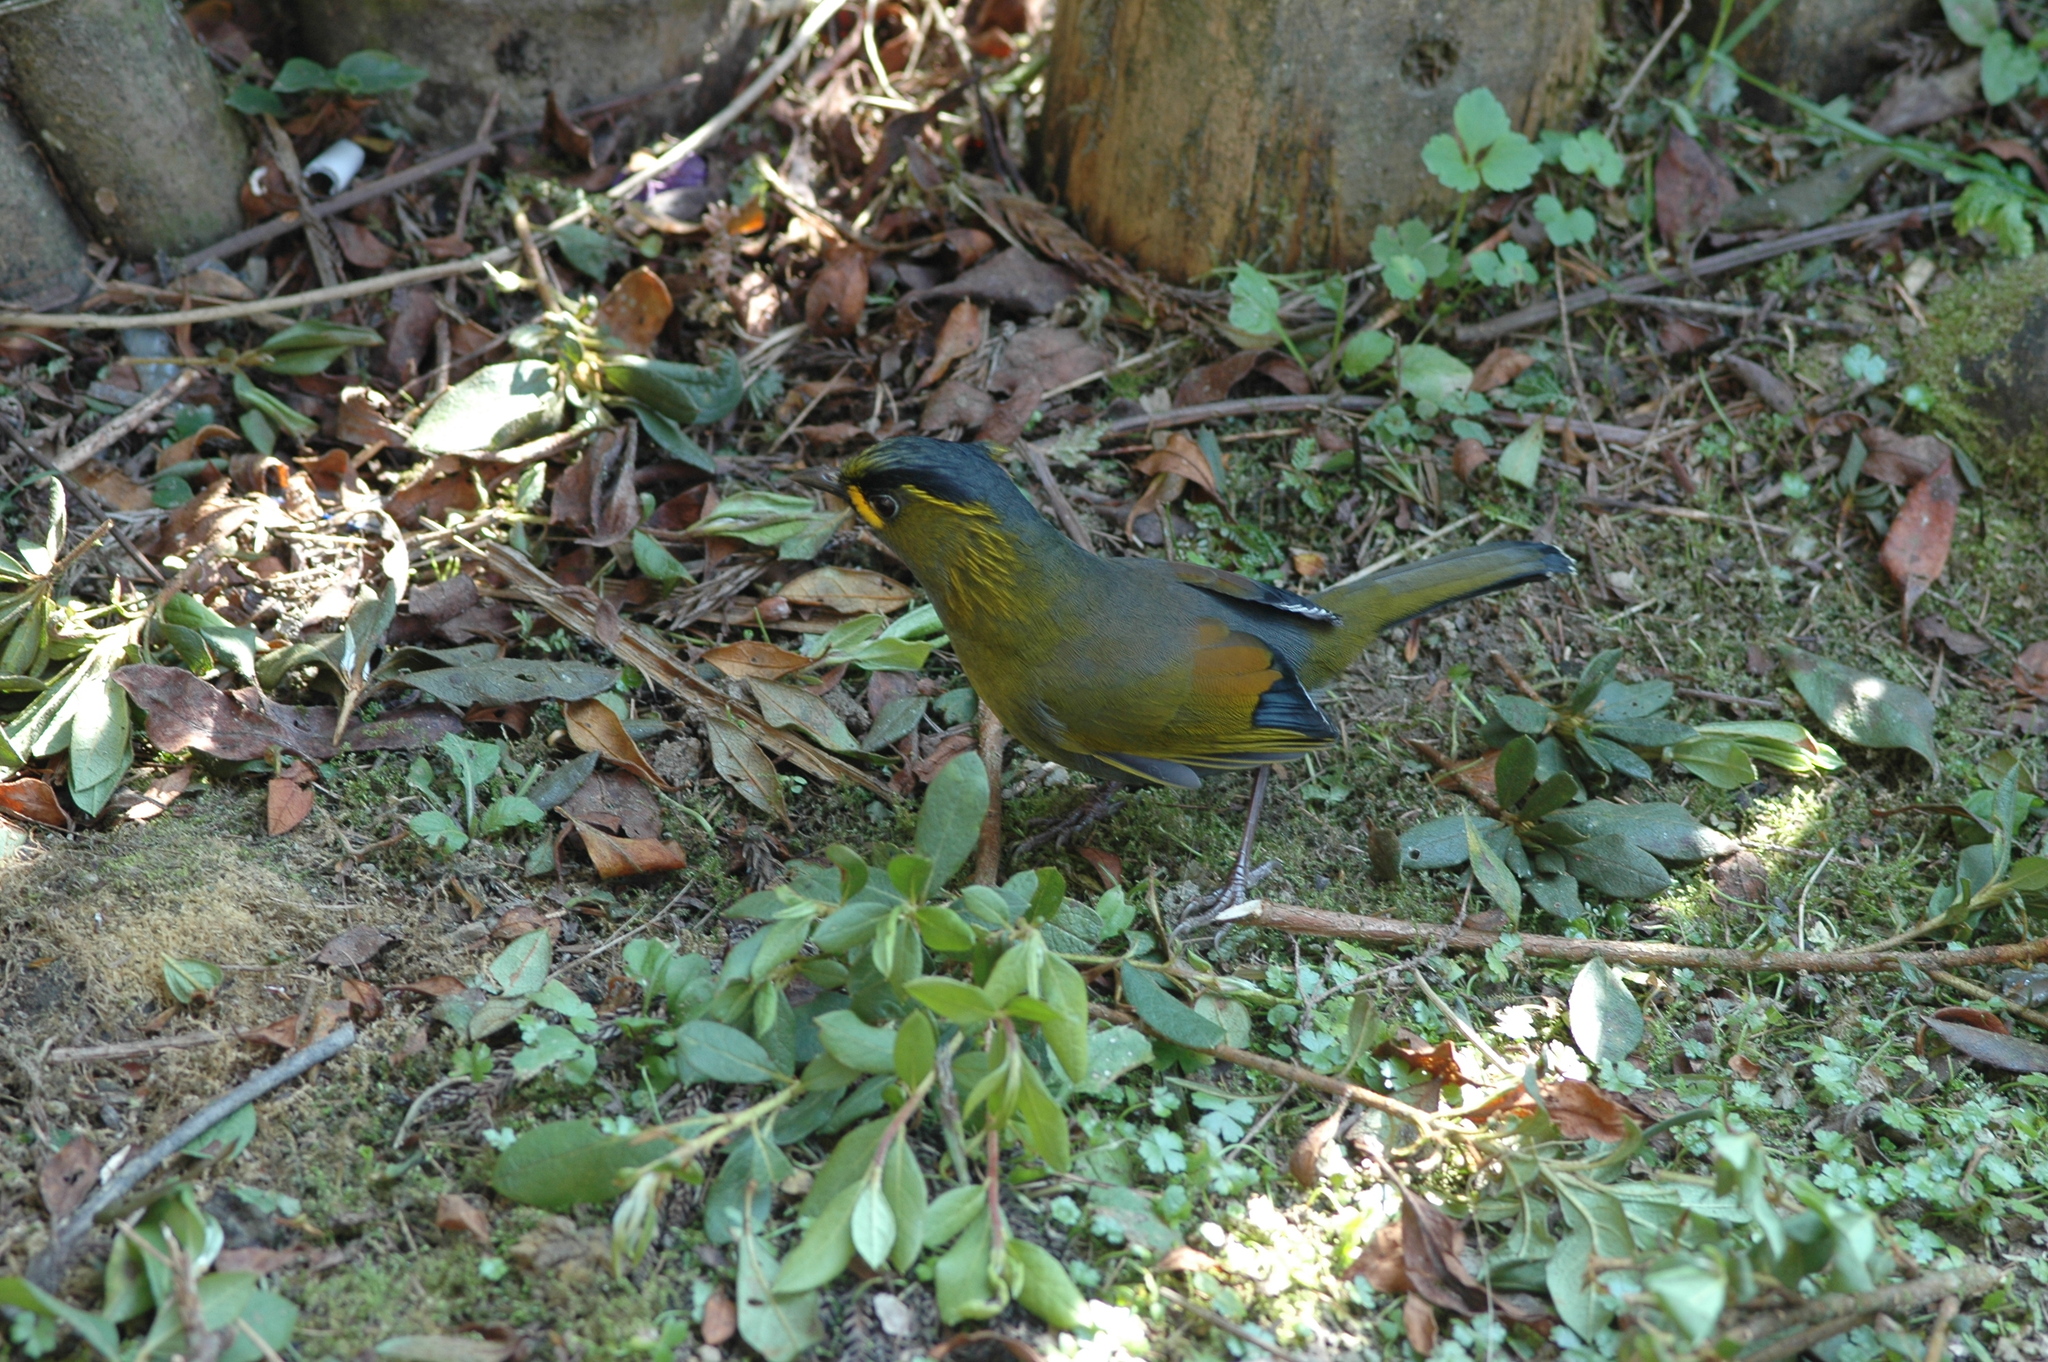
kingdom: Animalia
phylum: Chordata
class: Aves
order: Passeriformes
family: Leiothrichidae
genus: Liocichla
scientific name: Liocichla steerii
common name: Steere's liocichla
